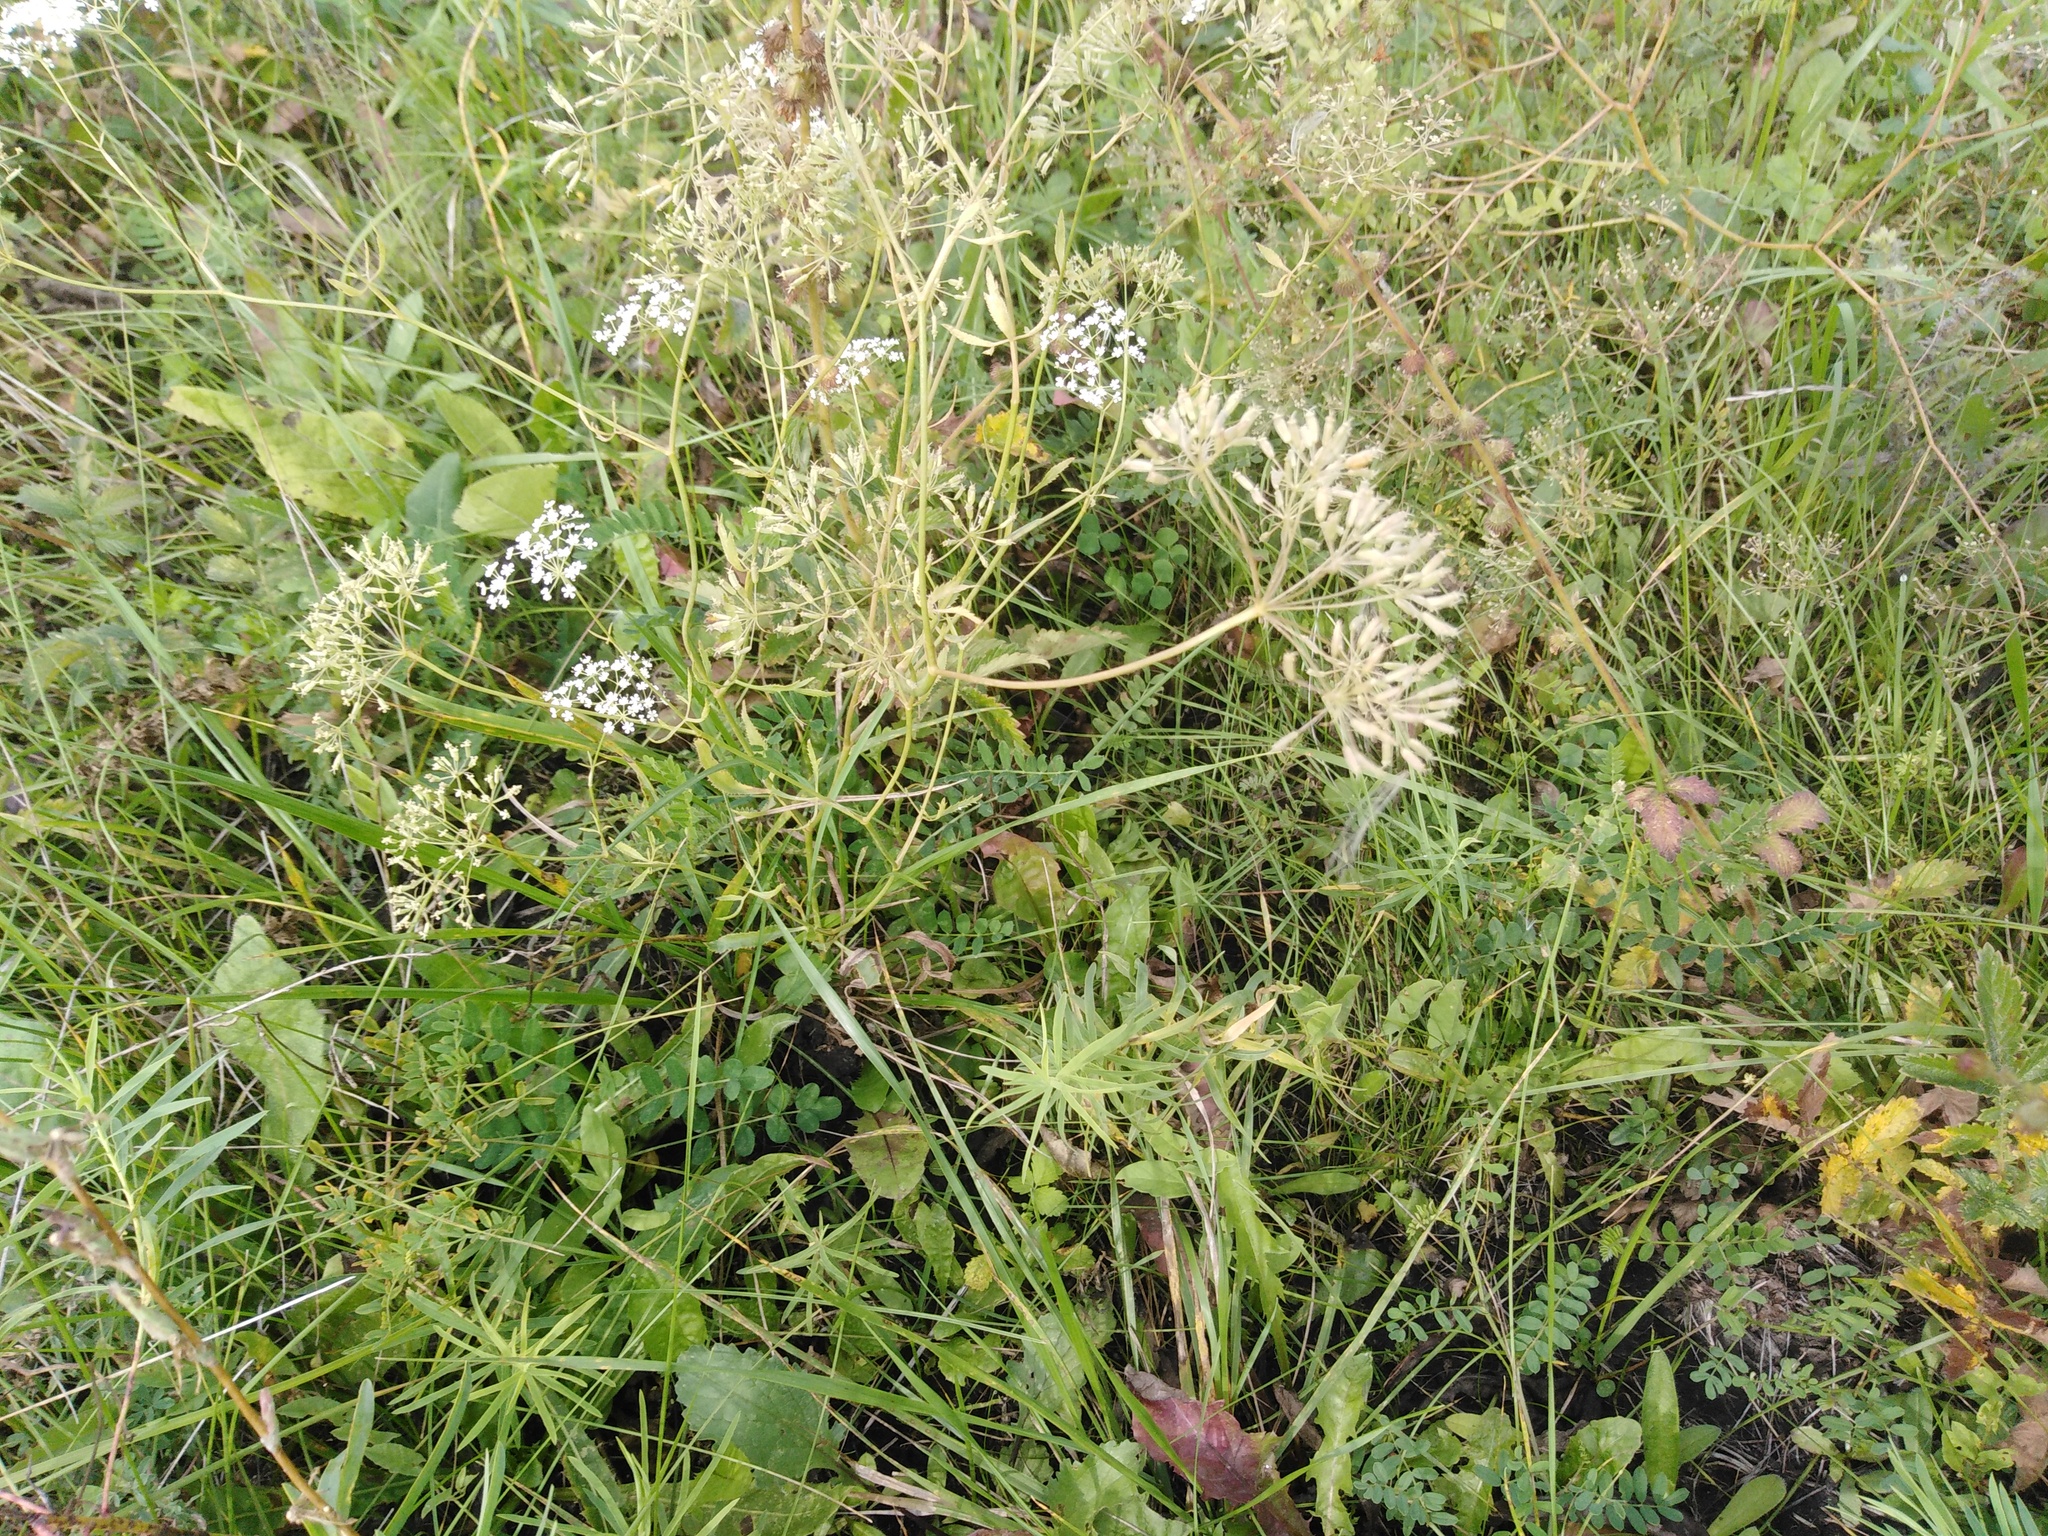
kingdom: Plantae
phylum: Tracheophyta
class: Magnoliopsida
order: Apiales
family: Apiaceae
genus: Falcaria
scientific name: Falcaria vulgaris
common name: Longleaf
